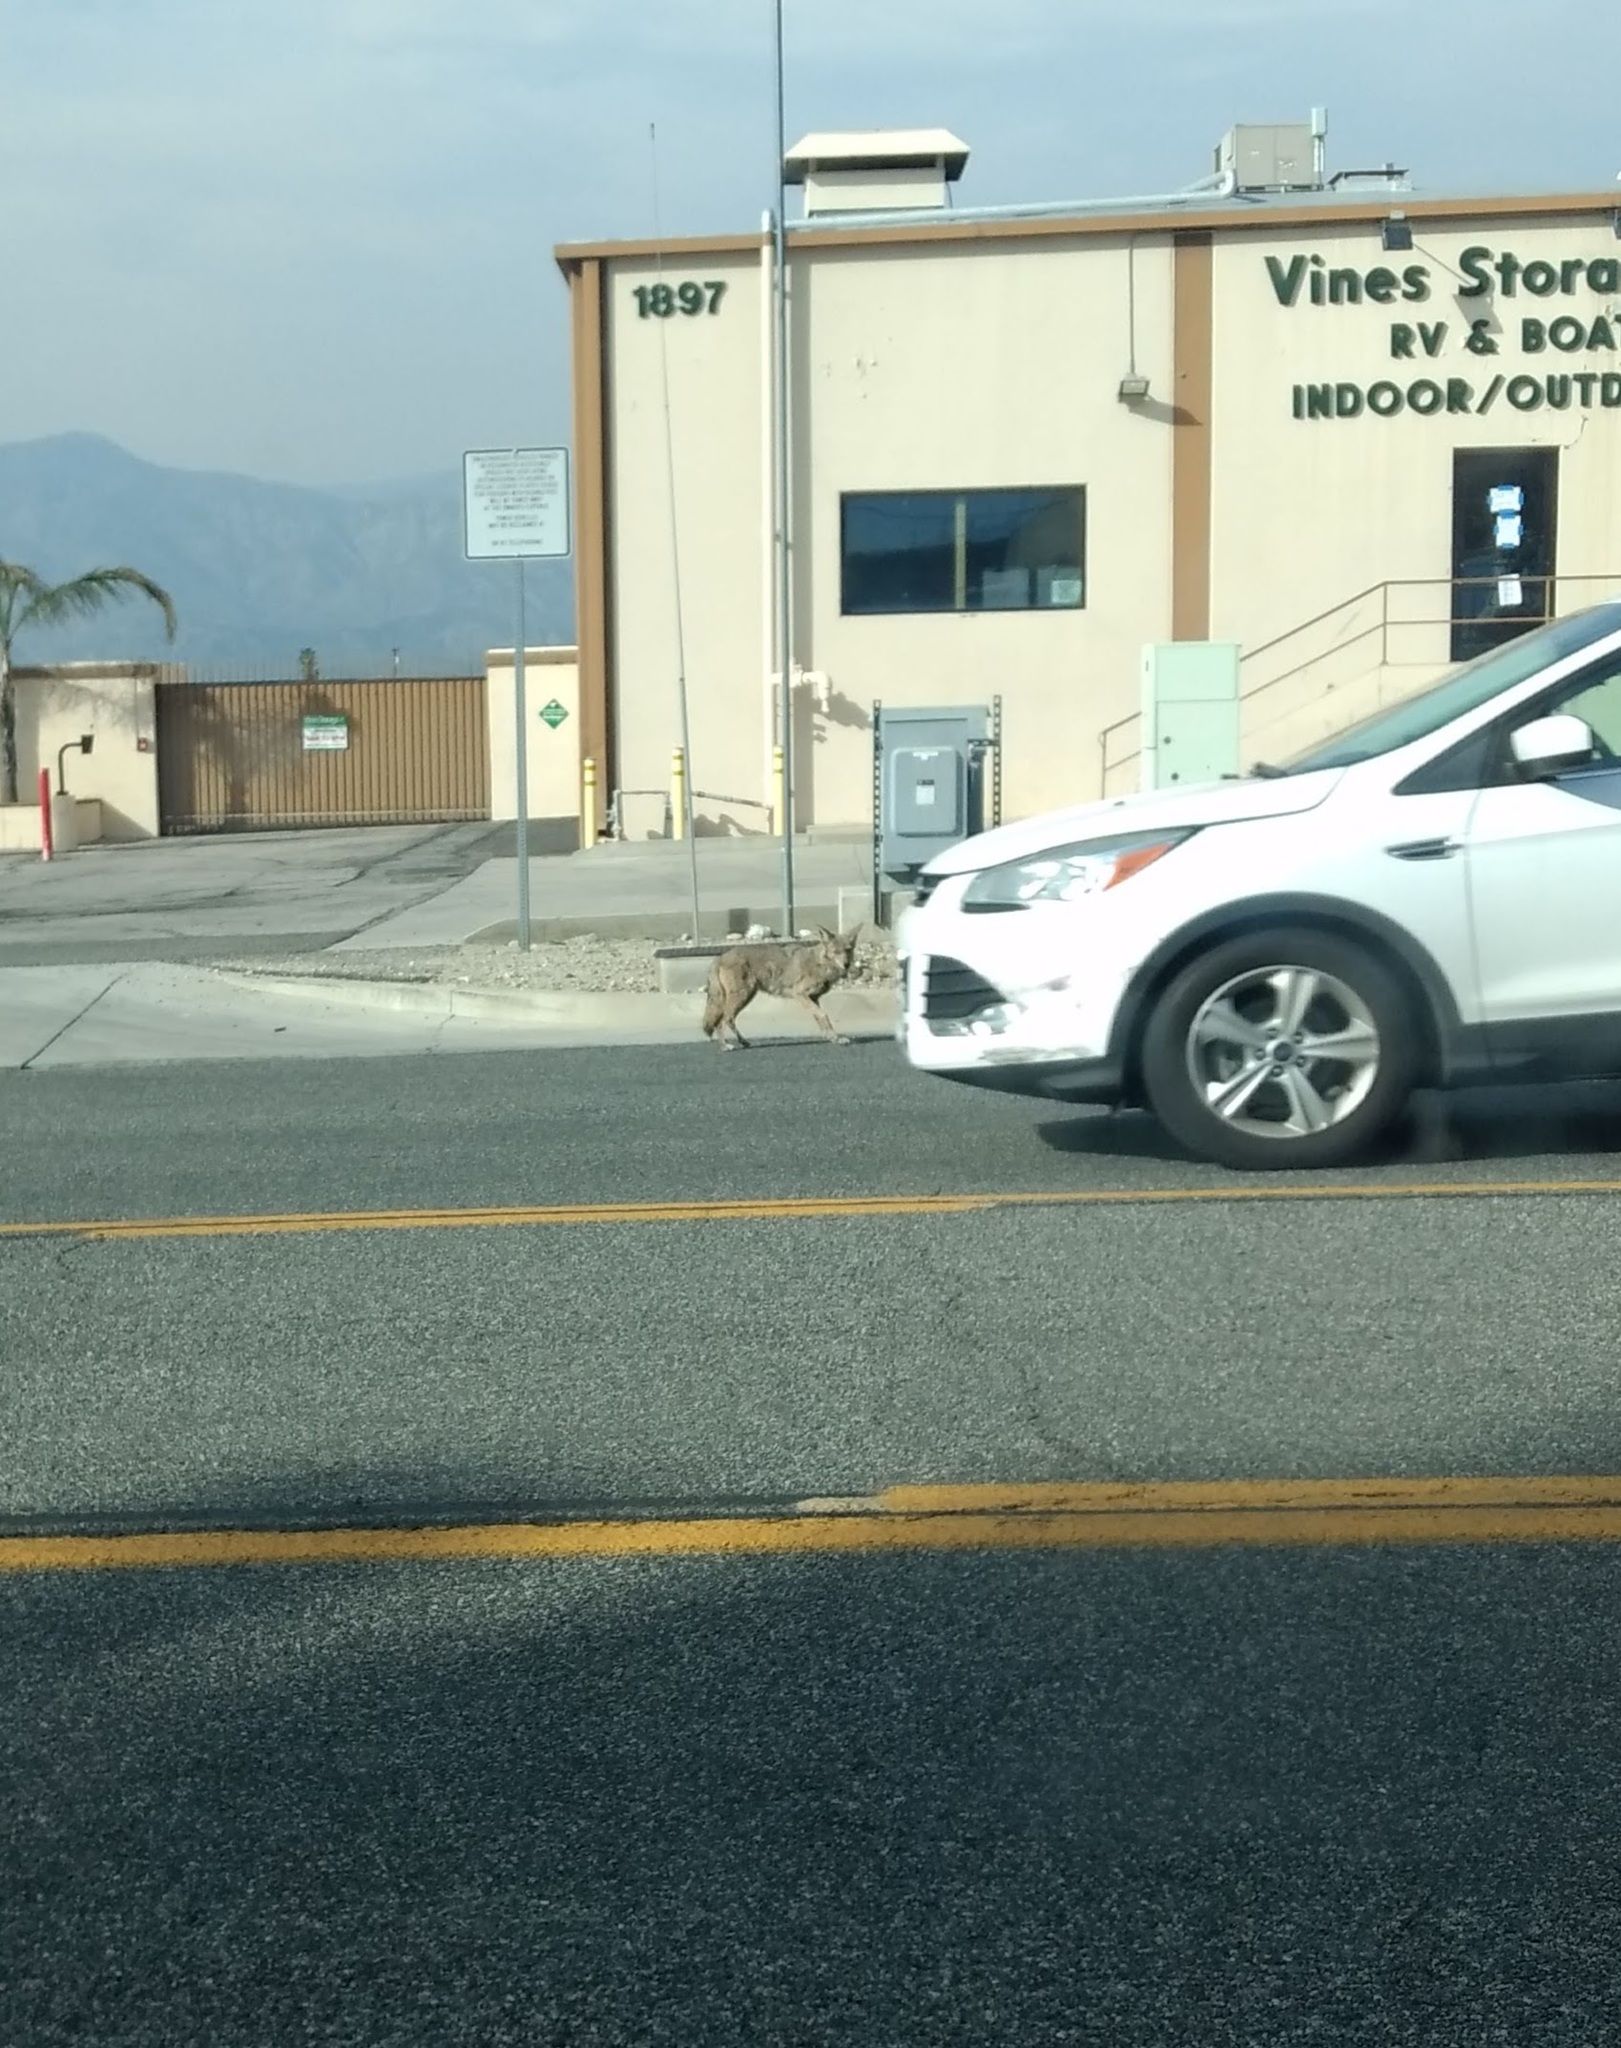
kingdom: Animalia
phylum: Chordata
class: Mammalia
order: Carnivora
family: Canidae
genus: Canis
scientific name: Canis latrans
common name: Coyote
